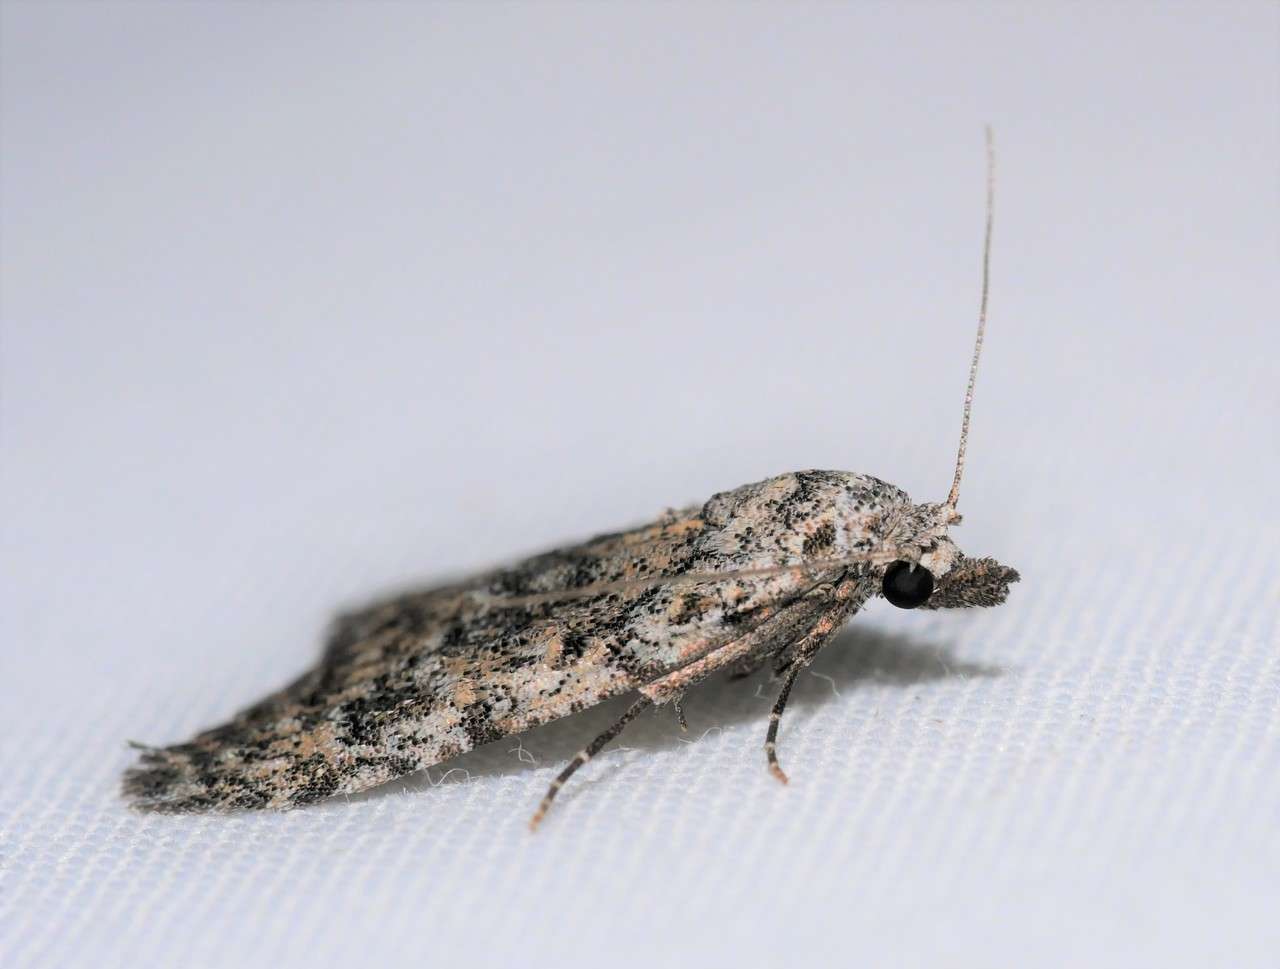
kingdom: Animalia
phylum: Arthropoda
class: Insecta
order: Lepidoptera
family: Nolidae
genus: Nola
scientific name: Nola pothina
